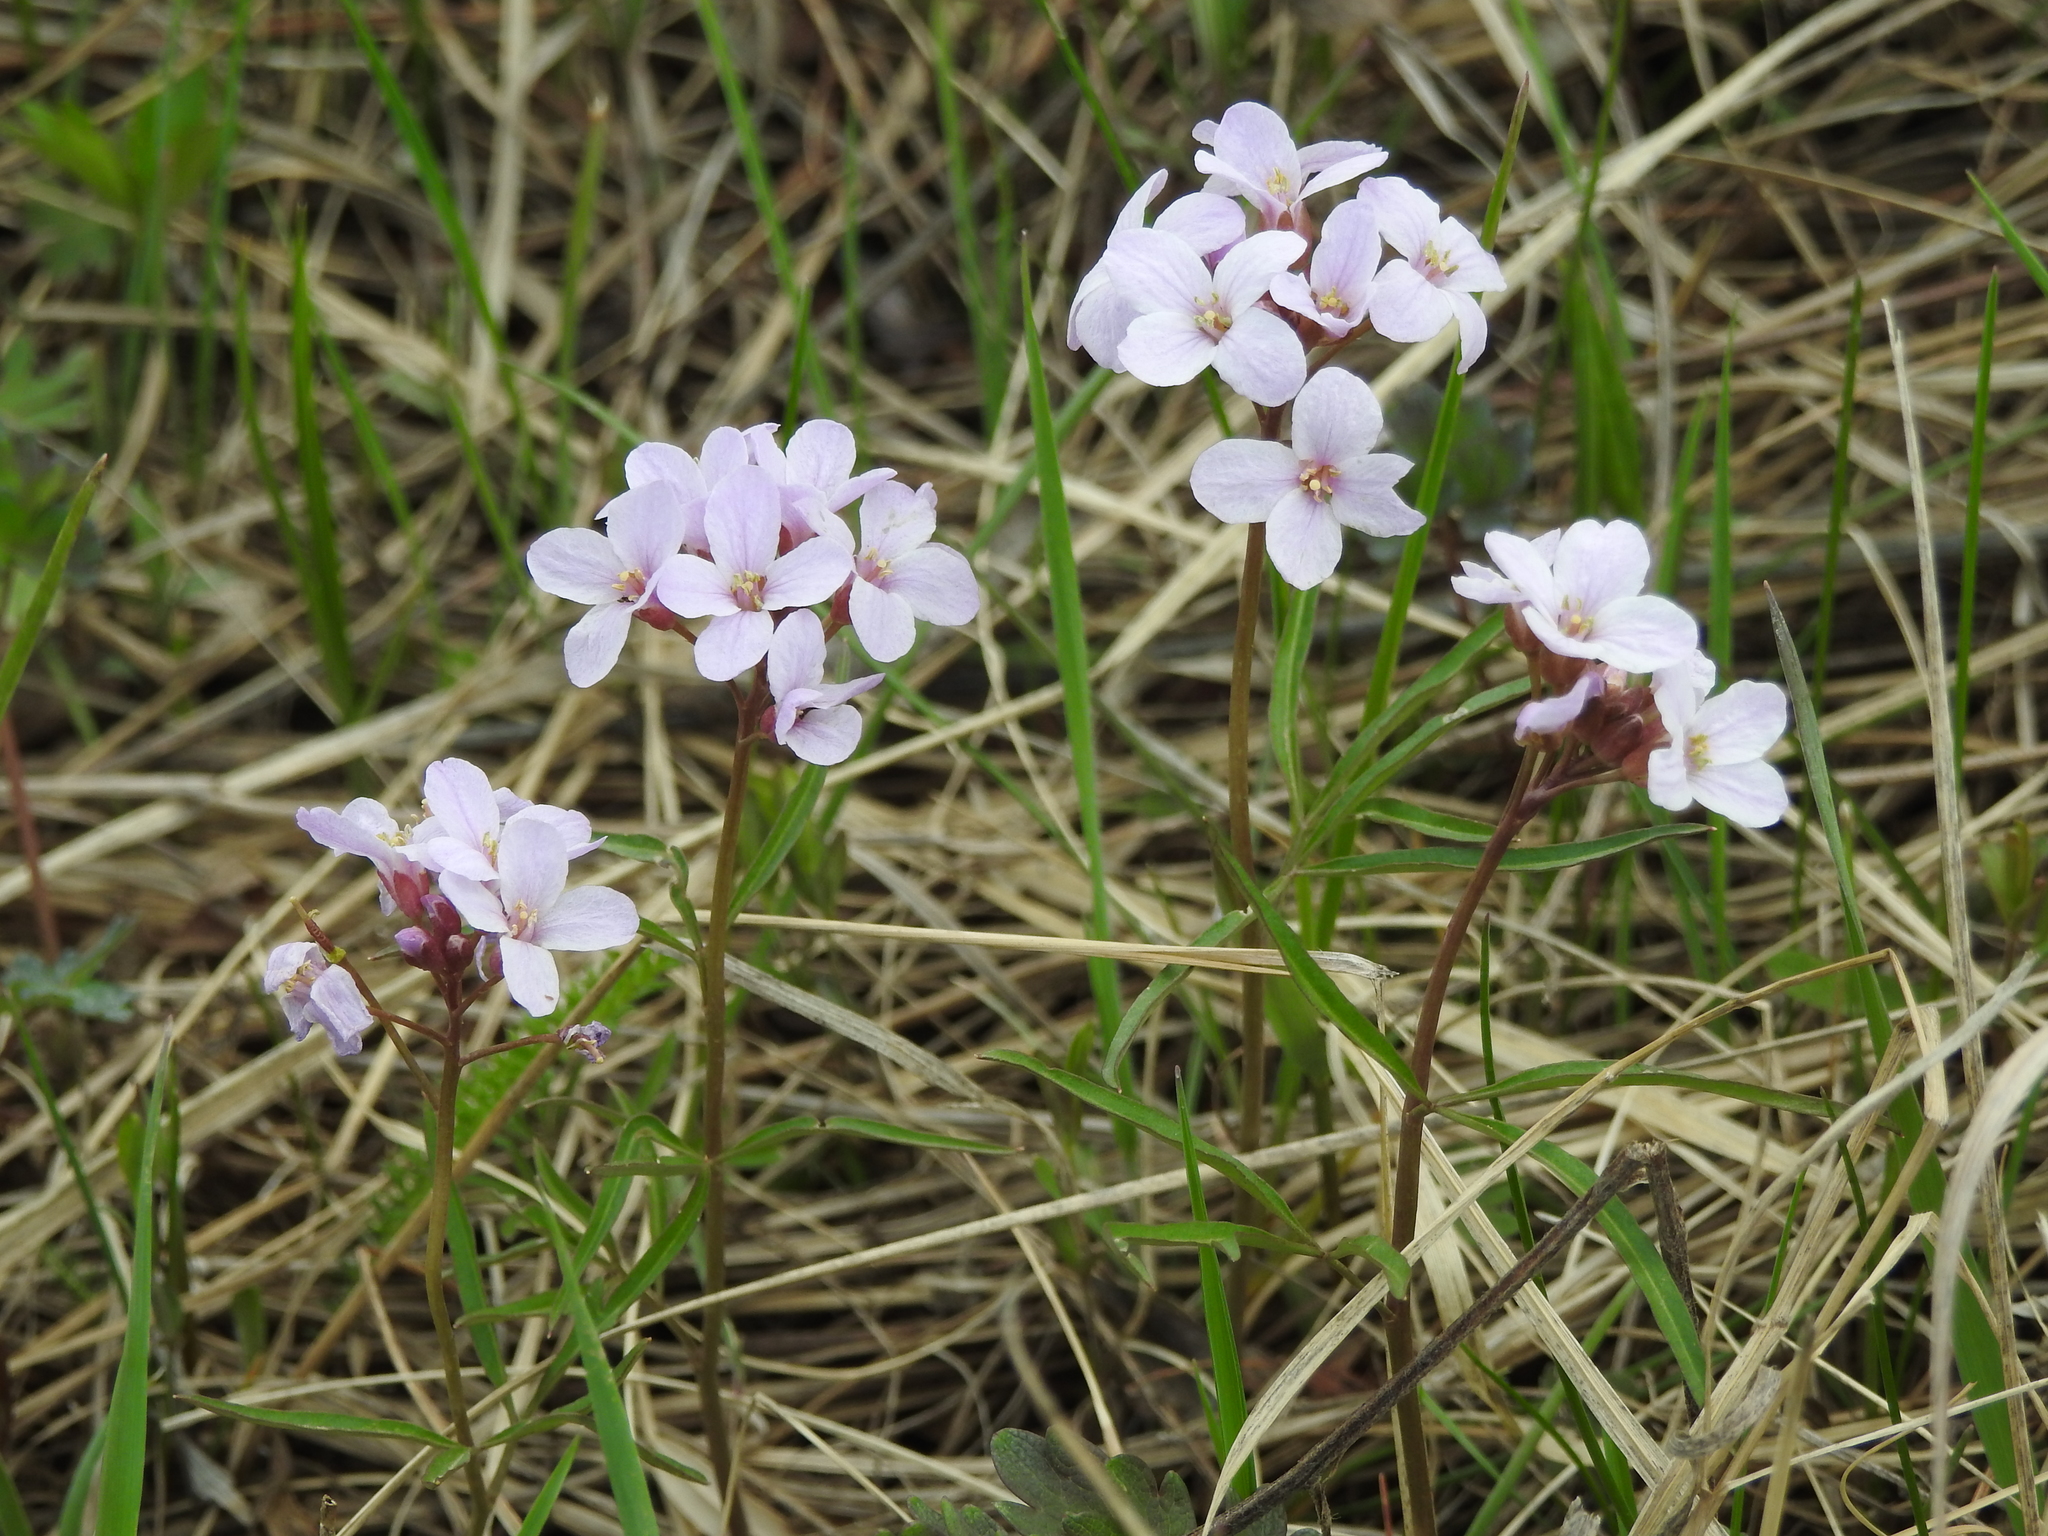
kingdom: Plantae
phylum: Tracheophyta
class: Magnoliopsida
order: Brassicales
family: Brassicaceae
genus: Cardamine
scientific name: Cardamine trifida
